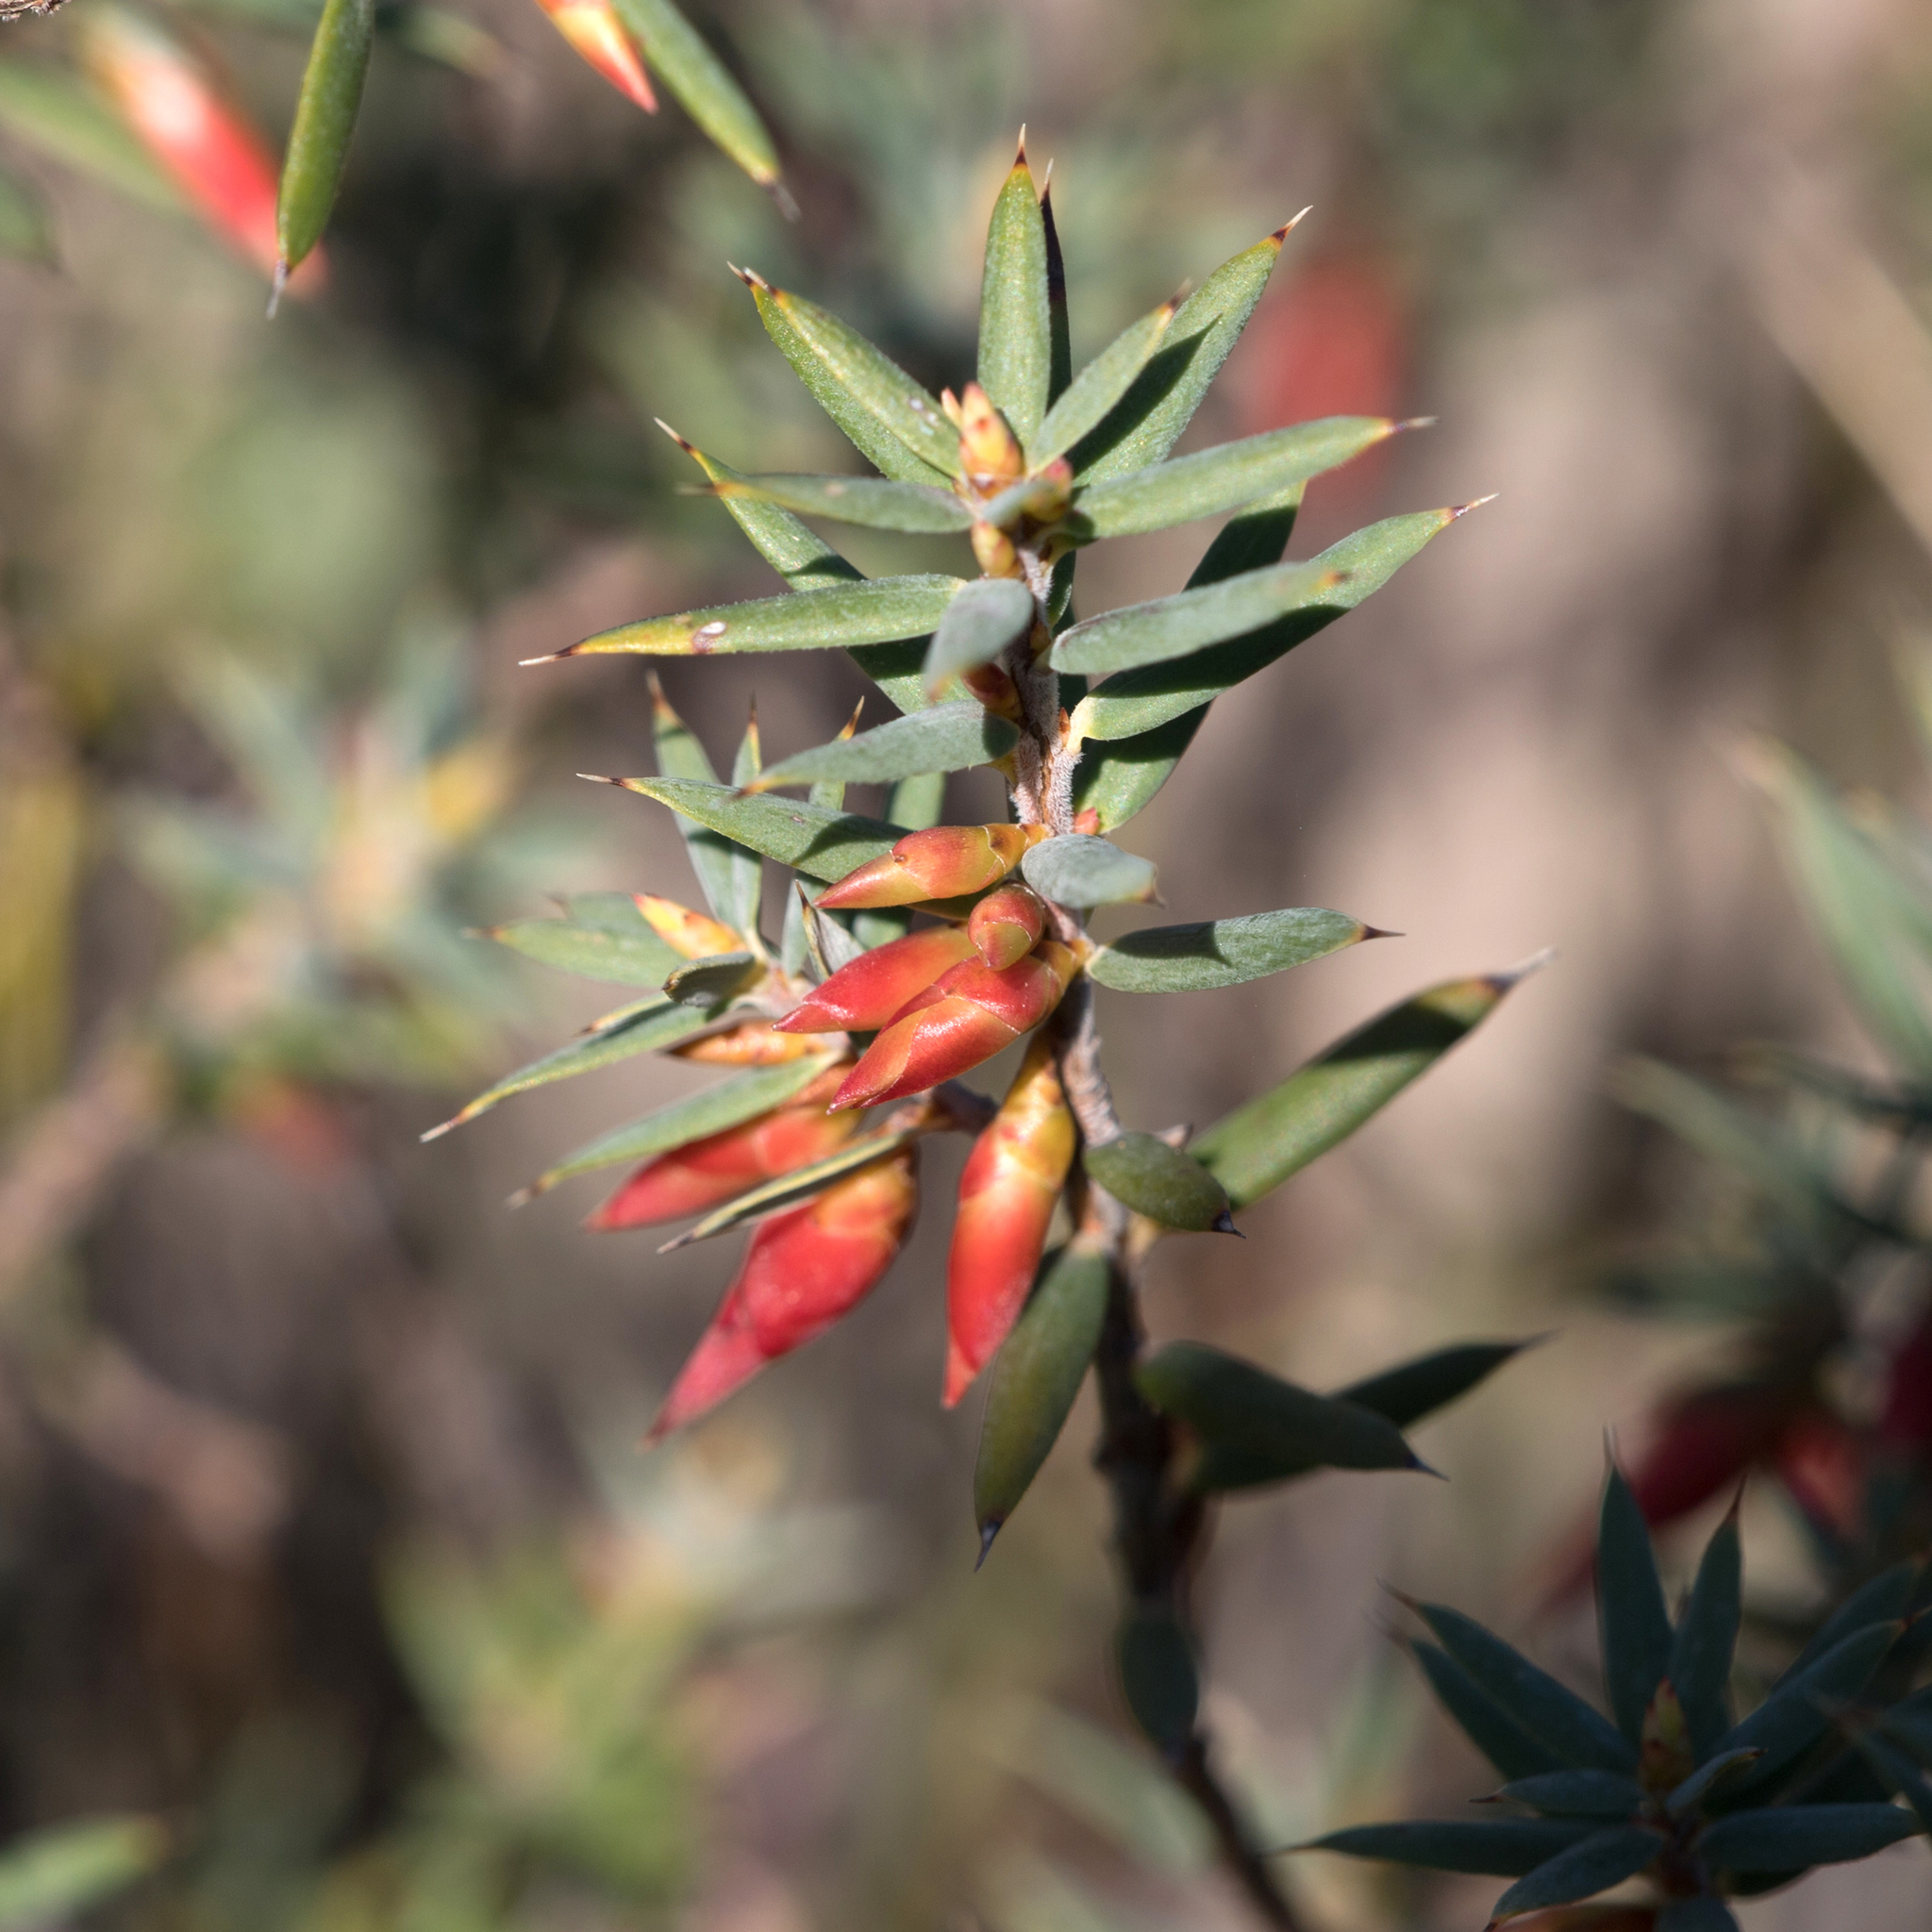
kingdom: Plantae
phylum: Tracheophyta
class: Magnoliopsida
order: Ericales
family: Ericaceae
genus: Stenanthera
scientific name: Stenanthera conostephioides
